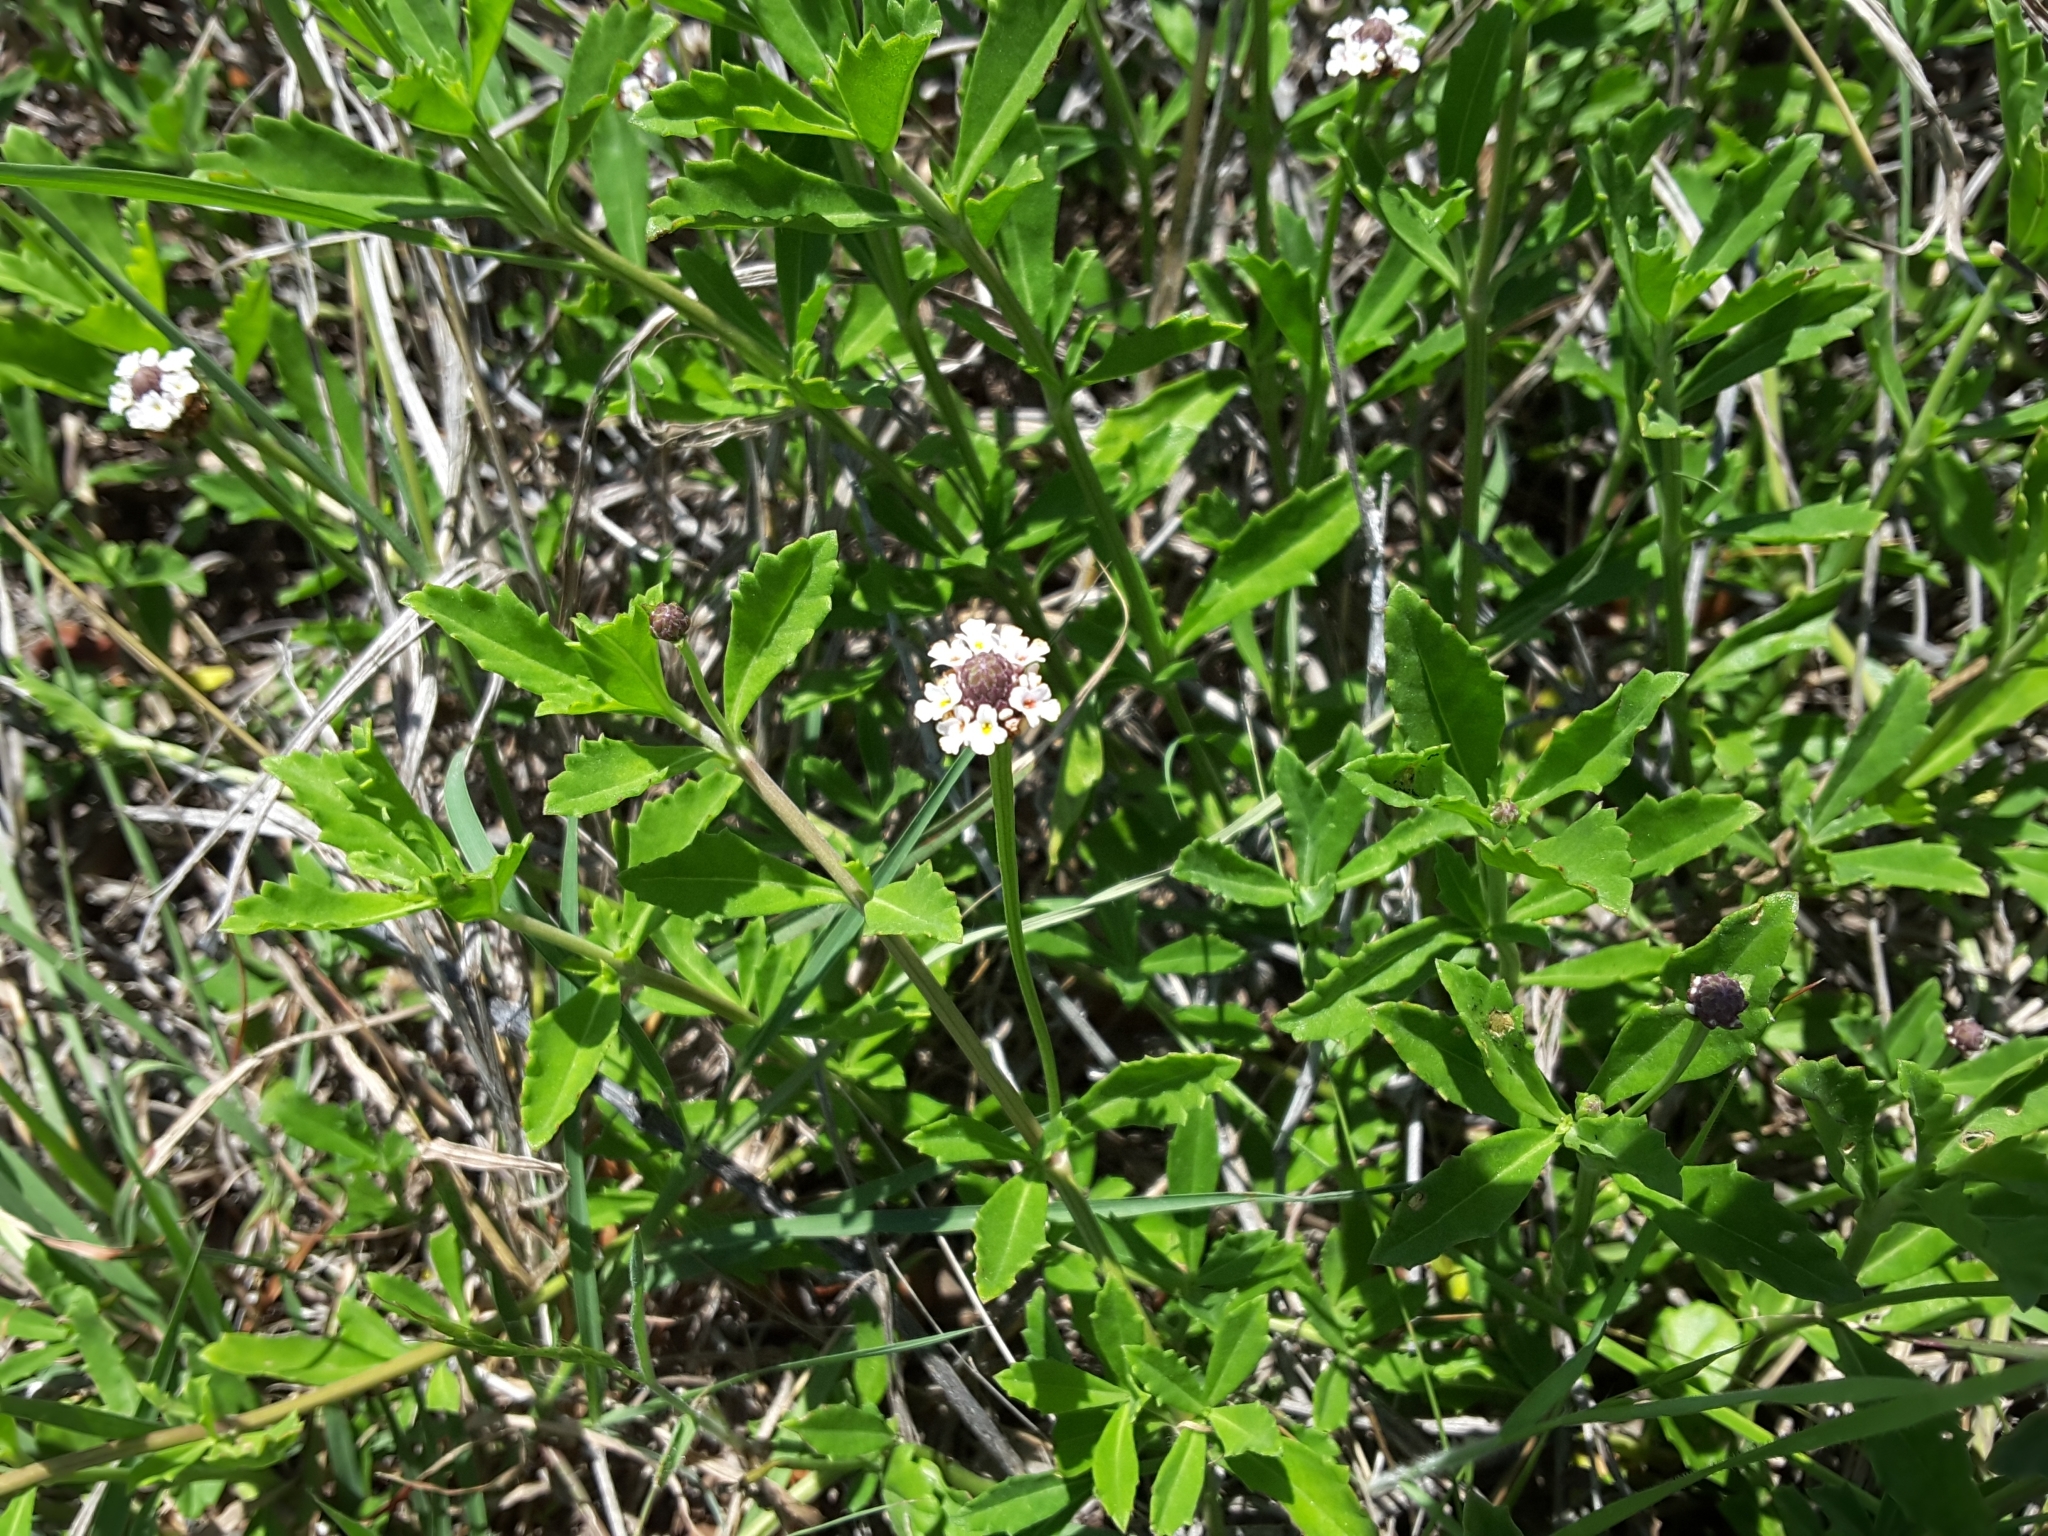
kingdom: Plantae
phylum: Tracheophyta
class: Magnoliopsida
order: Lamiales
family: Verbenaceae
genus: Phyla
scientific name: Phyla nodiflora
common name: Frogfruit
